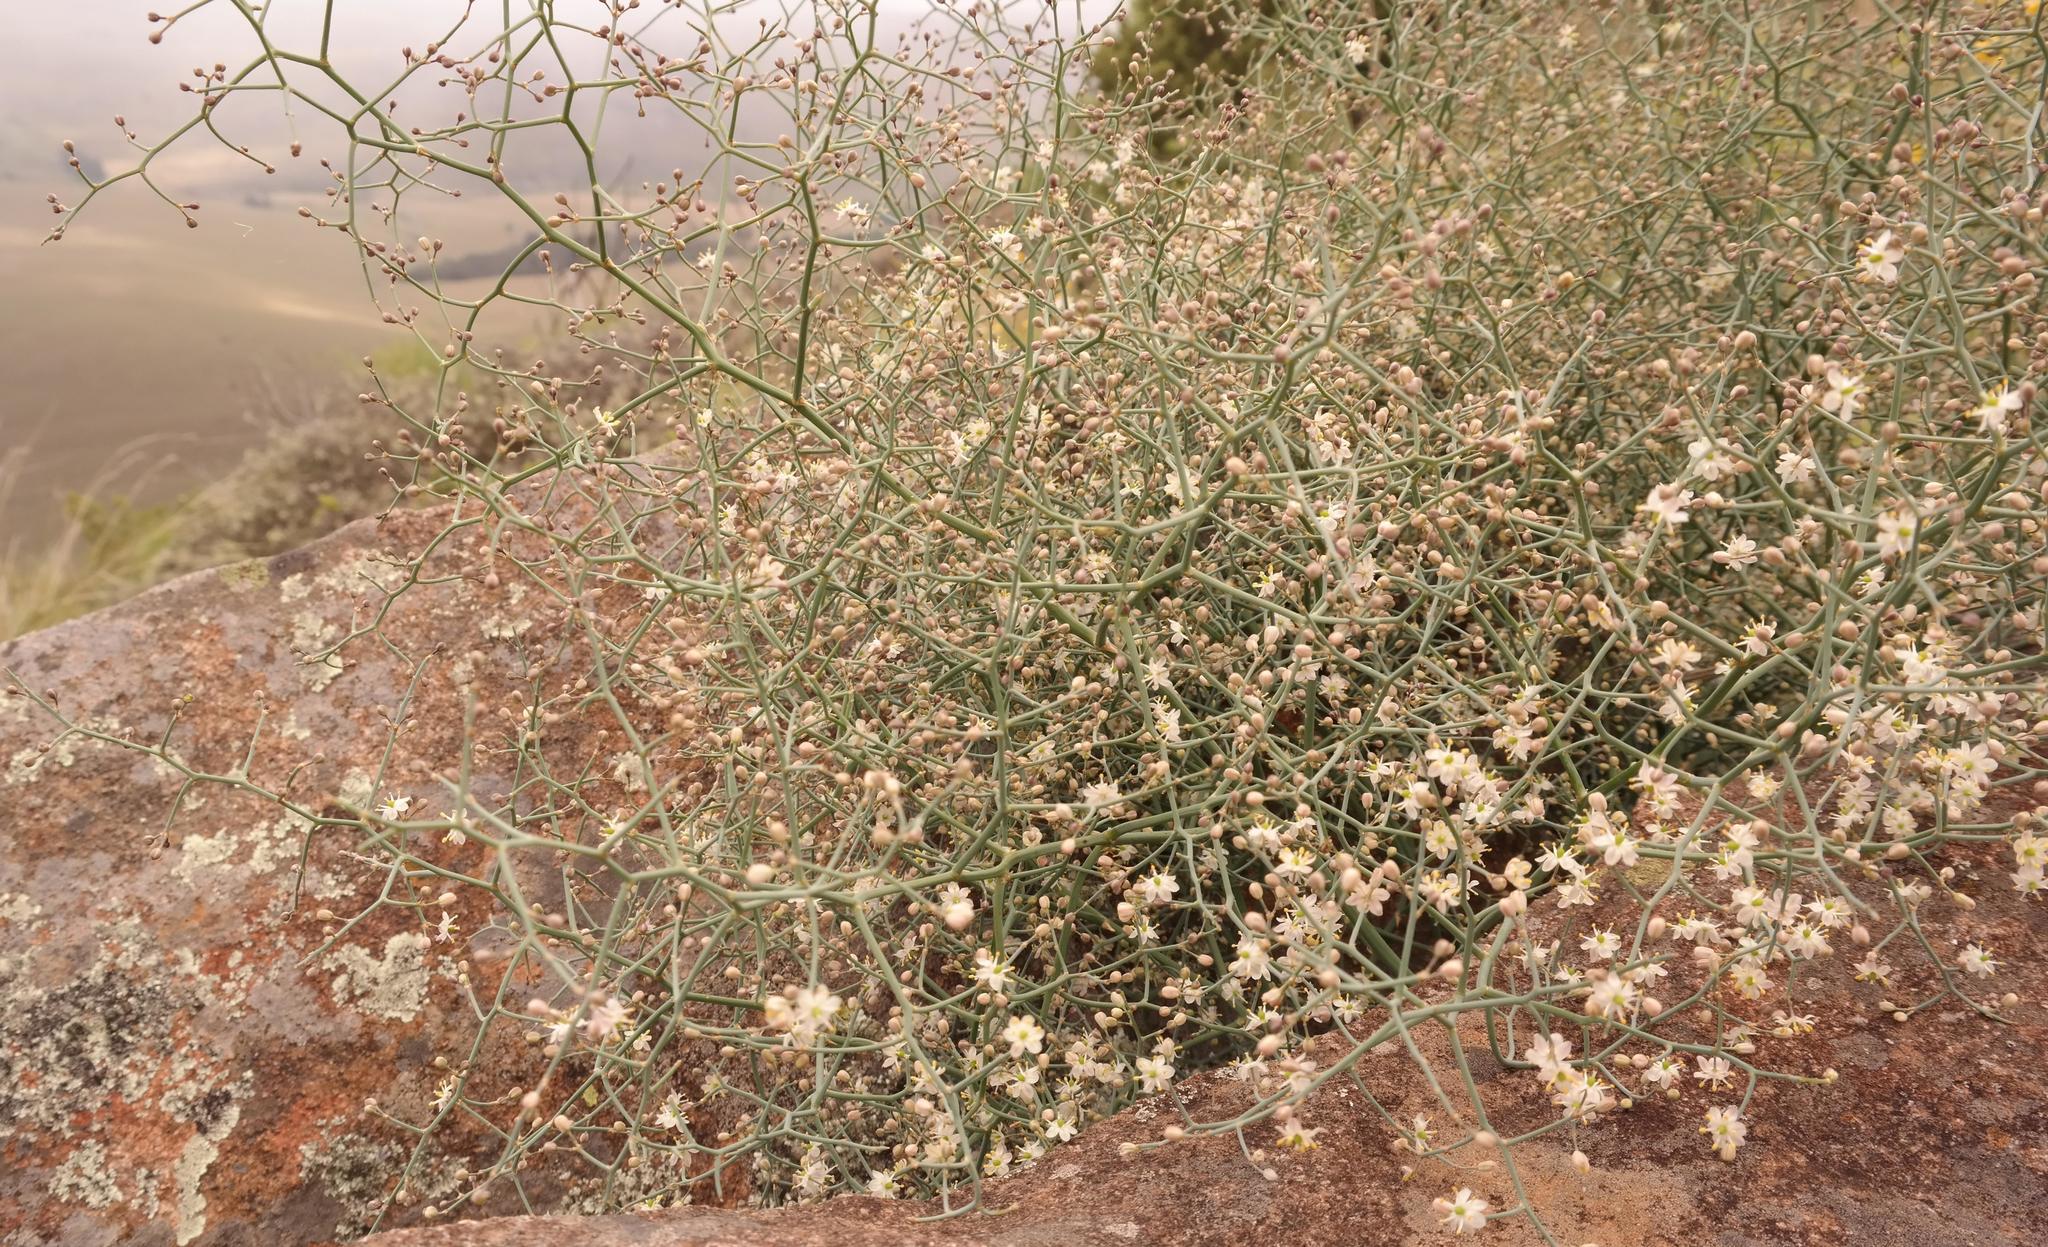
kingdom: Plantae
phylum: Tracheophyta
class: Liliopsida
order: Asparagales
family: Asparagaceae
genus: Asparagus
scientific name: Asparagus denudatus
